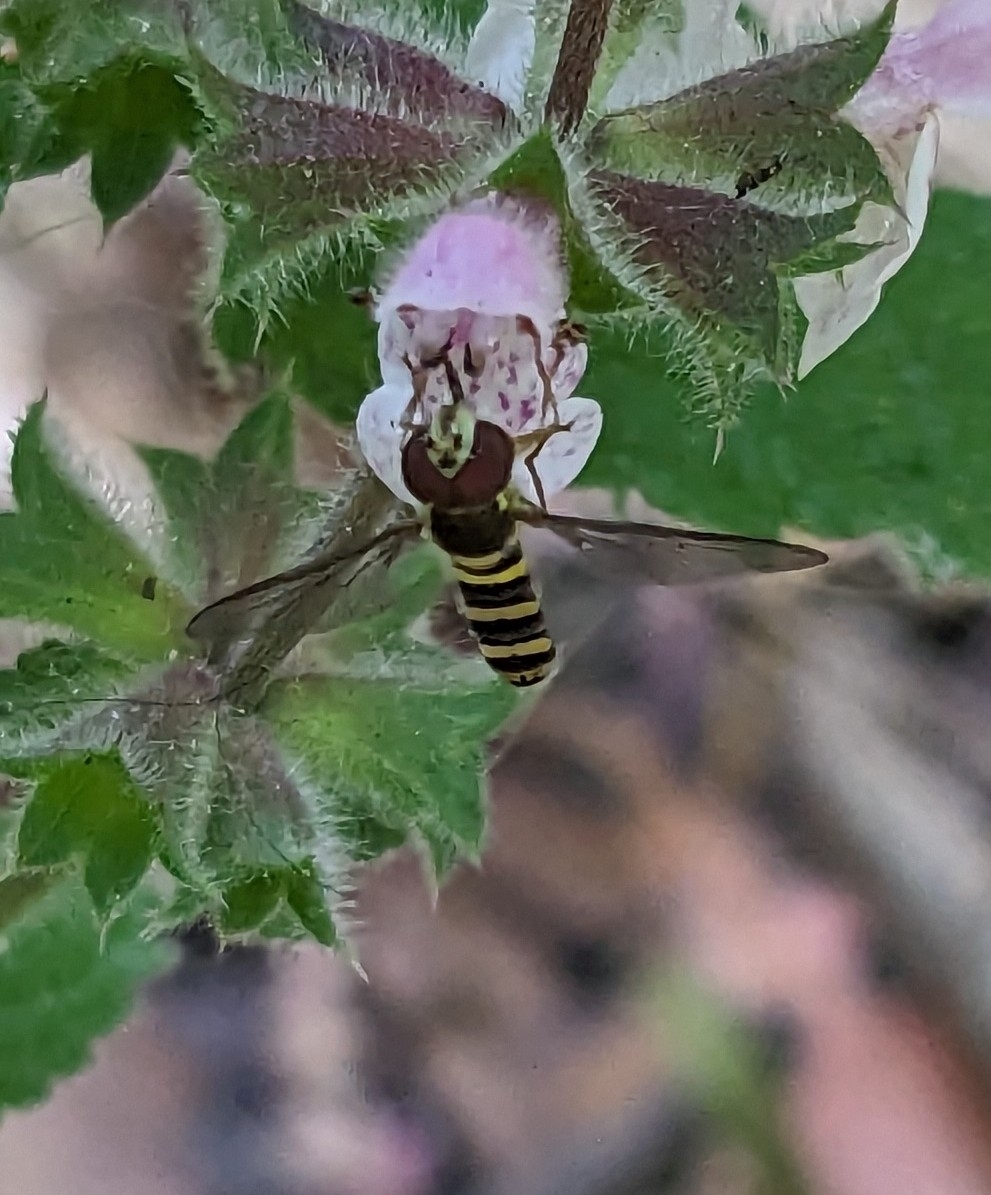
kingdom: Animalia
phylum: Arthropoda
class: Insecta
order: Diptera
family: Syrphidae
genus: Fazia
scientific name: Fazia micrura
